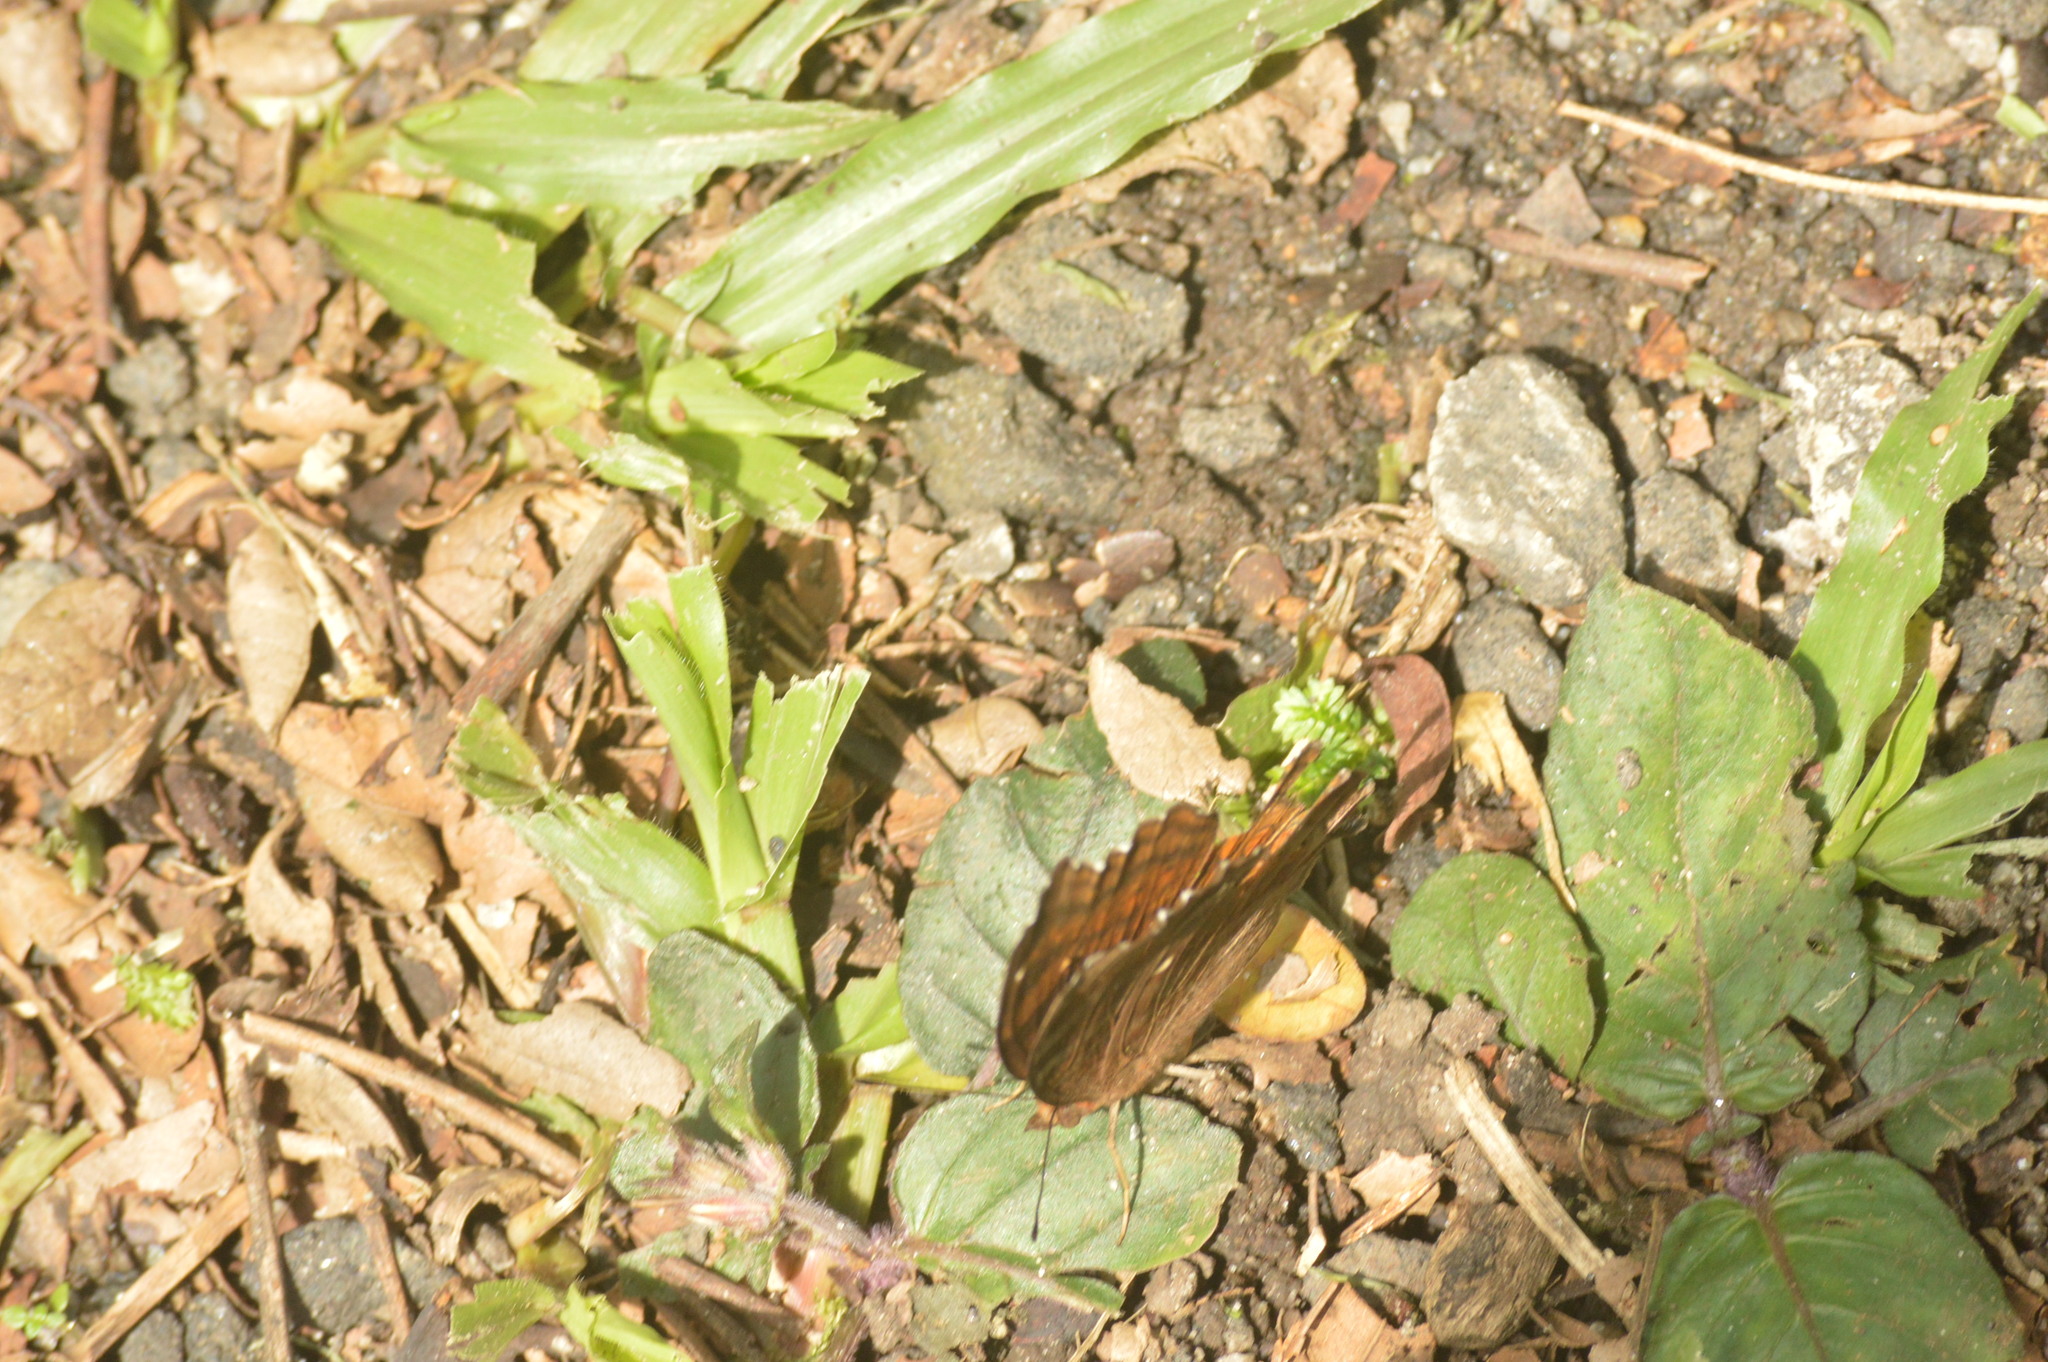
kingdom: Animalia
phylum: Arthropoda
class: Insecta
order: Lepidoptera
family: Nymphalidae
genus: Junonia
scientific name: Junonia hedonia
